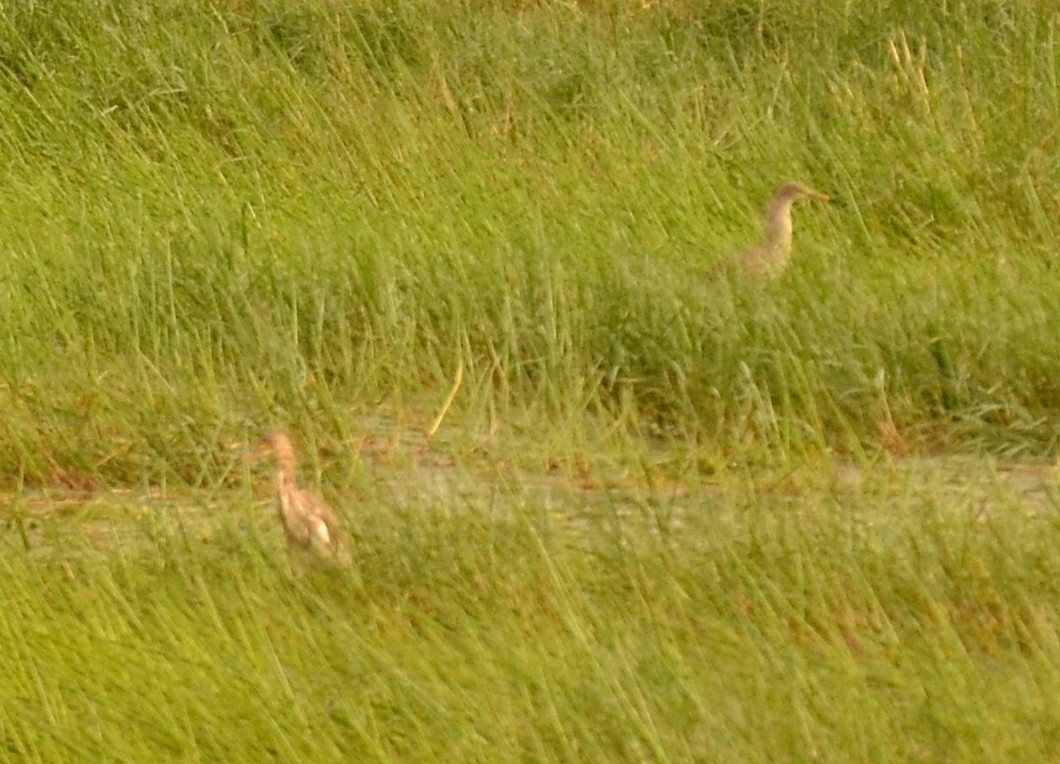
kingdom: Animalia
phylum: Chordata
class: Aves
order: Pelecaniformes
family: Ardeidae
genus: Ardeola
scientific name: Ardeola grayii
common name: Indian pond heron
